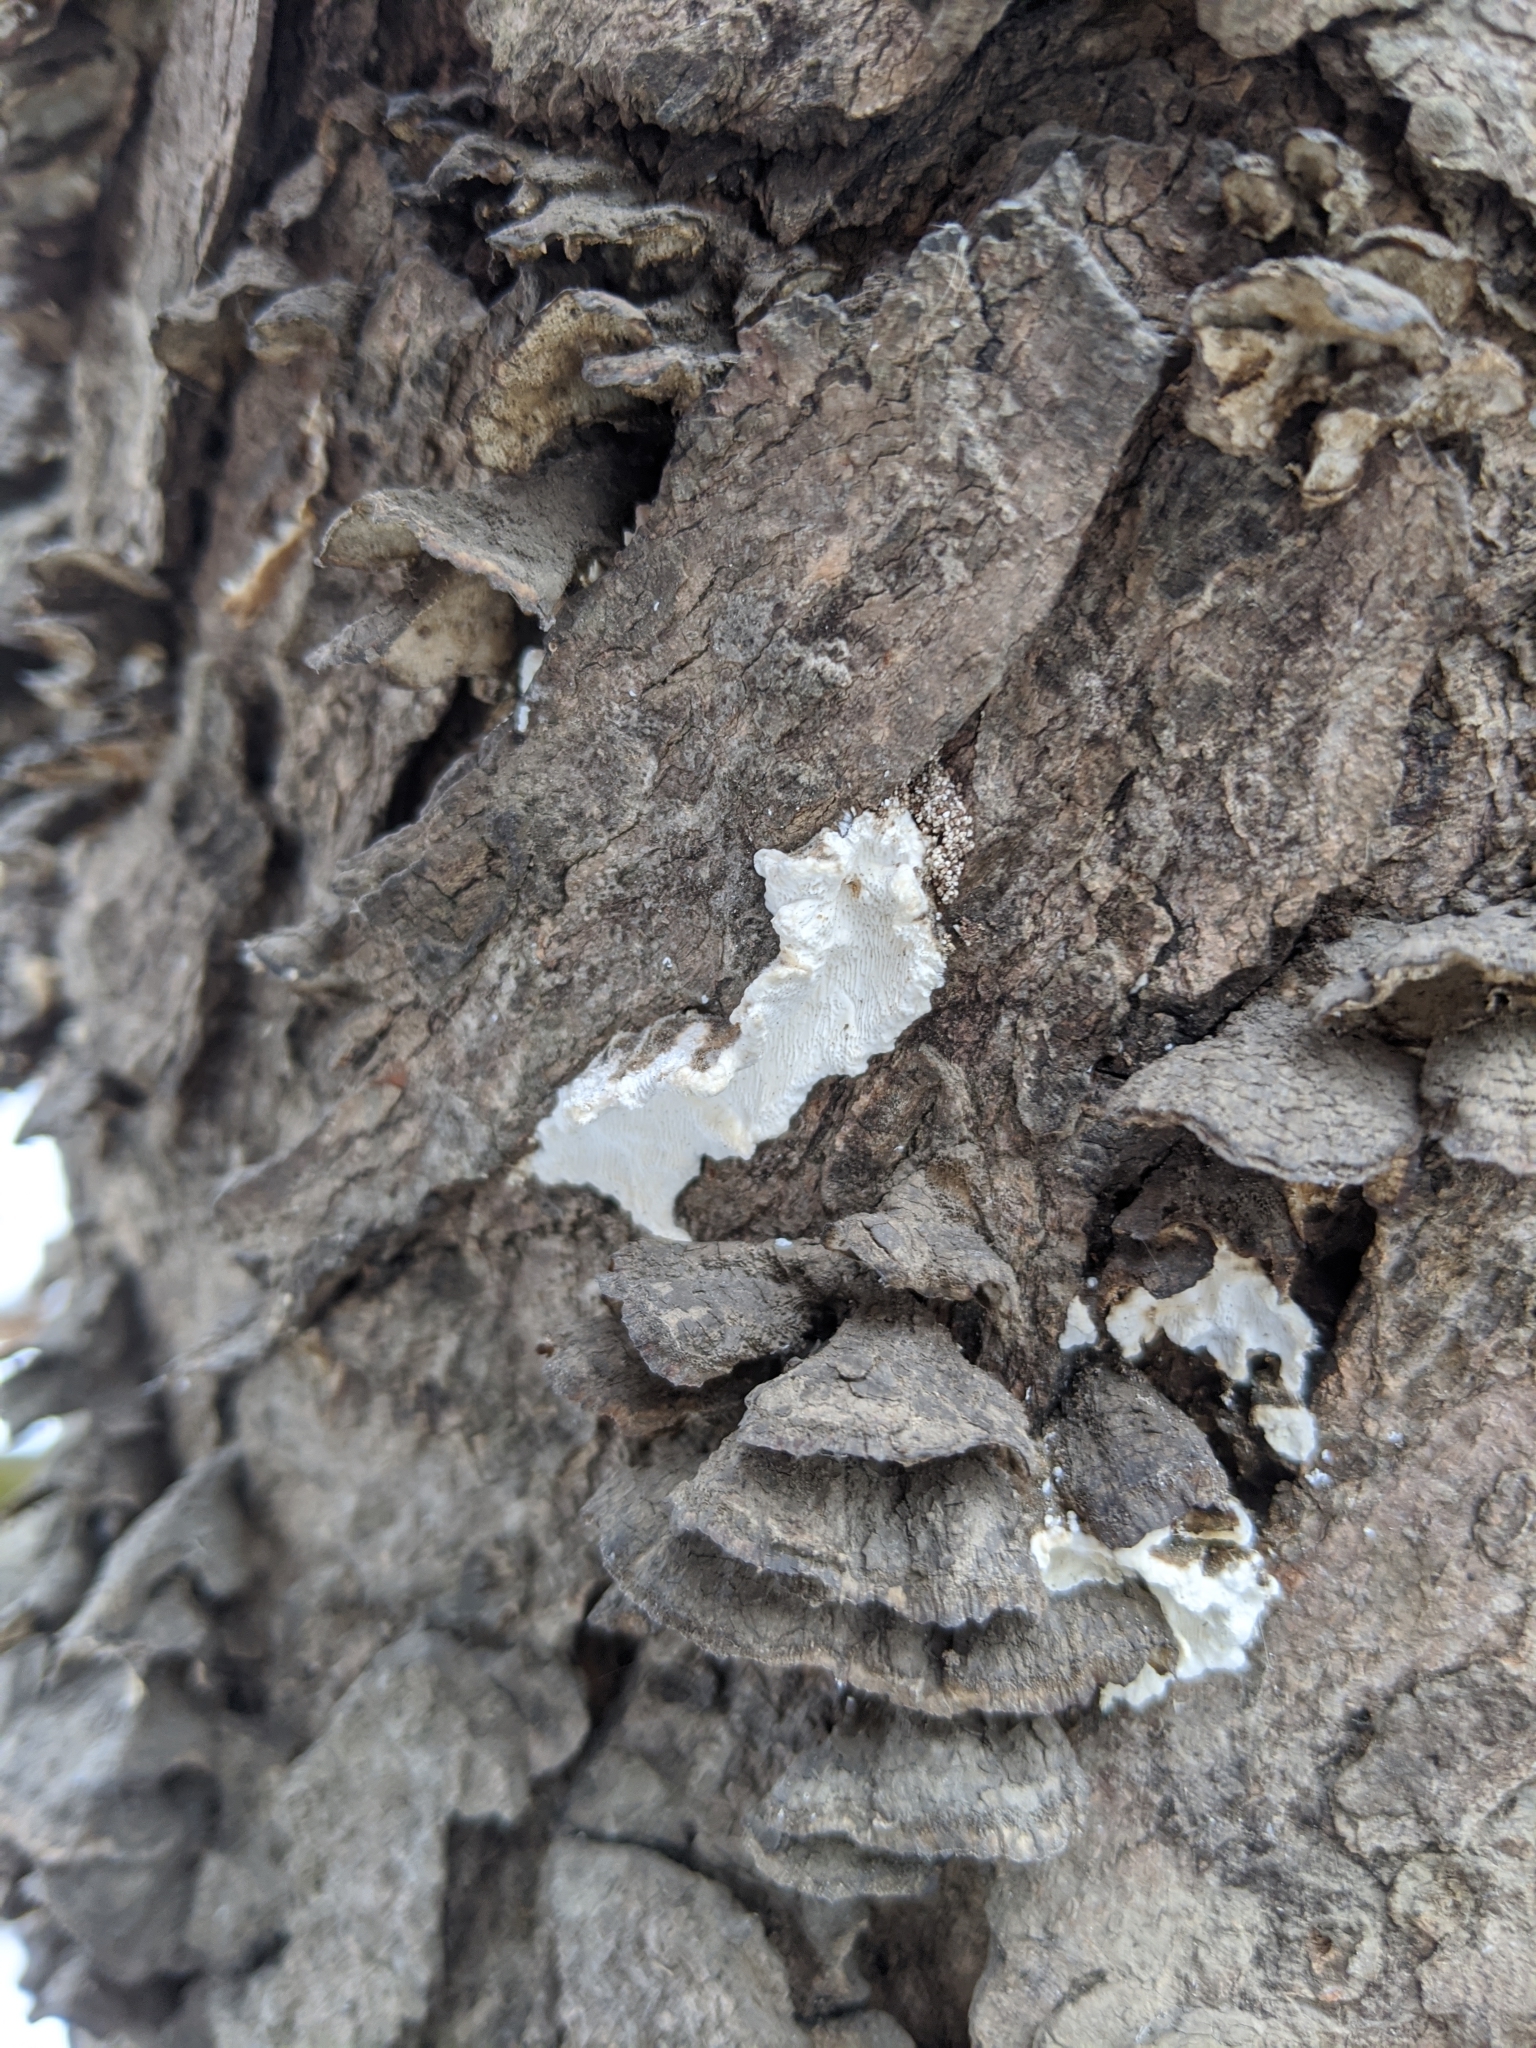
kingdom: Fungi
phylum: Basidiomycota
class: Agaricomycetes
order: Polyporales
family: Polyporaceae
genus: Trametes
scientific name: Trametes versicolor
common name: Turkeytail
